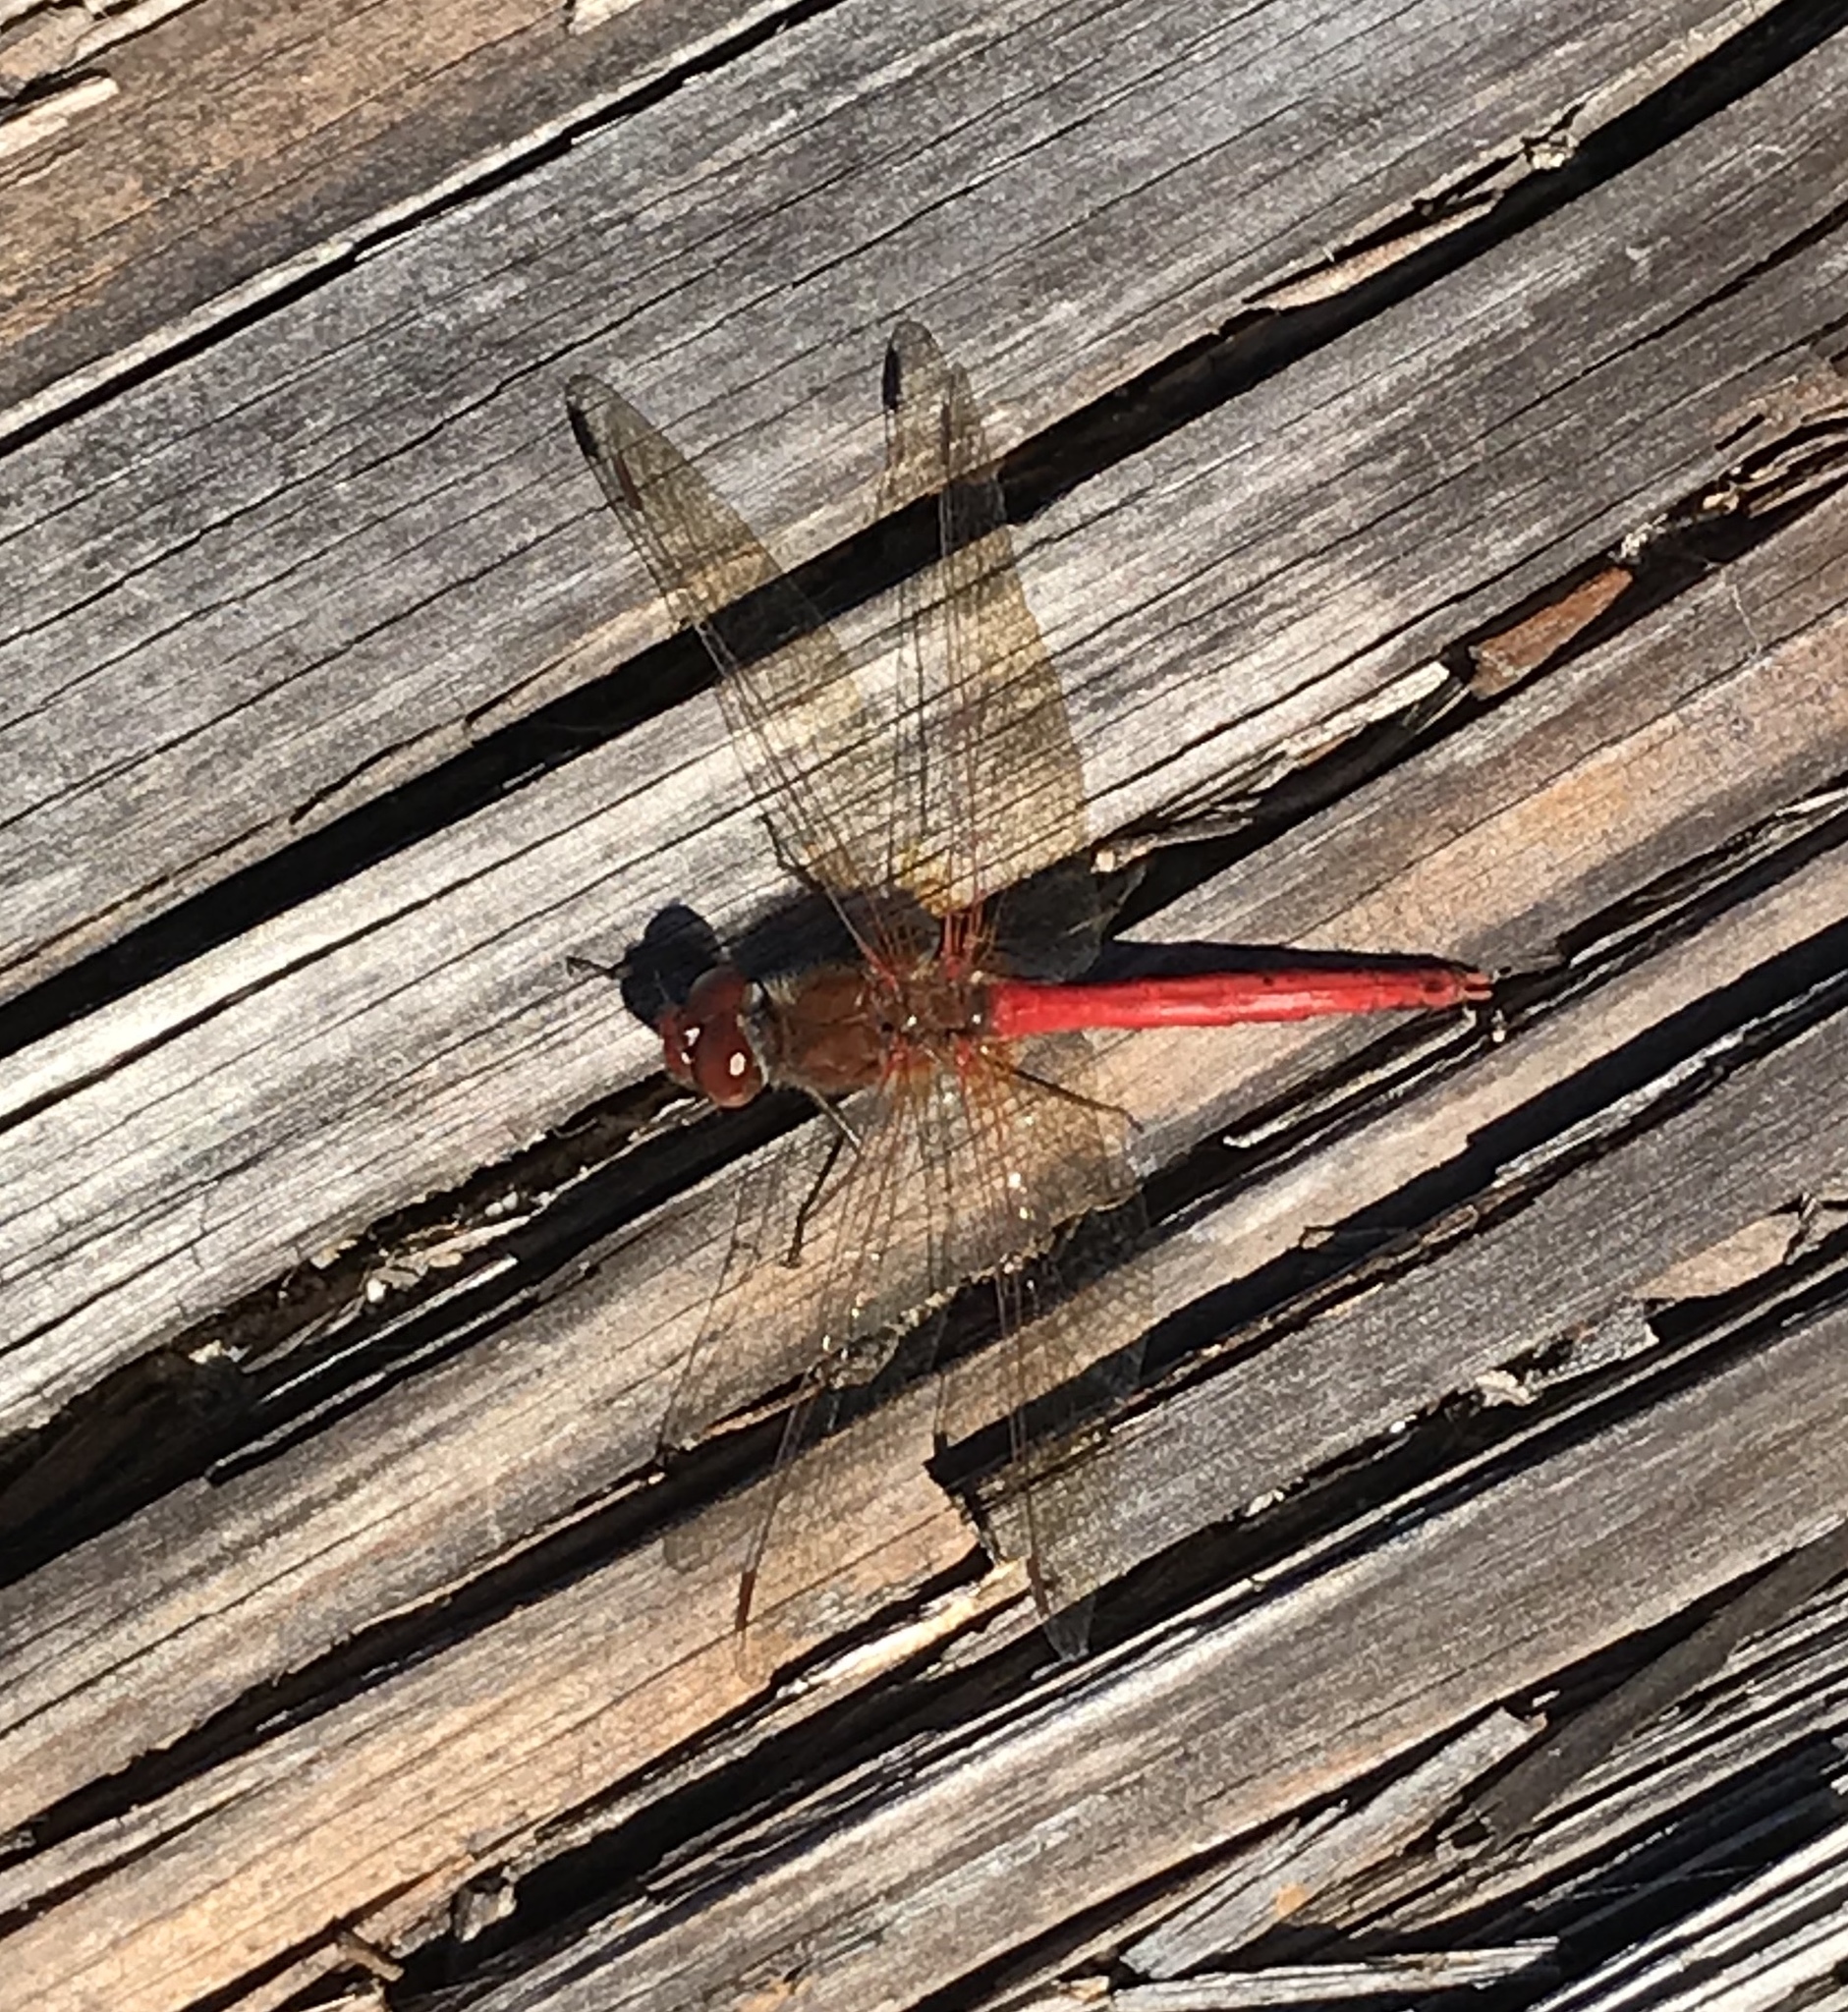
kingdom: Animalia
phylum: Arthropoda
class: Insecta
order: Odonata
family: Libellulidae
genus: Sympetrum
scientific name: Sympetrum vicinum
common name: Autumn meadowhawk
